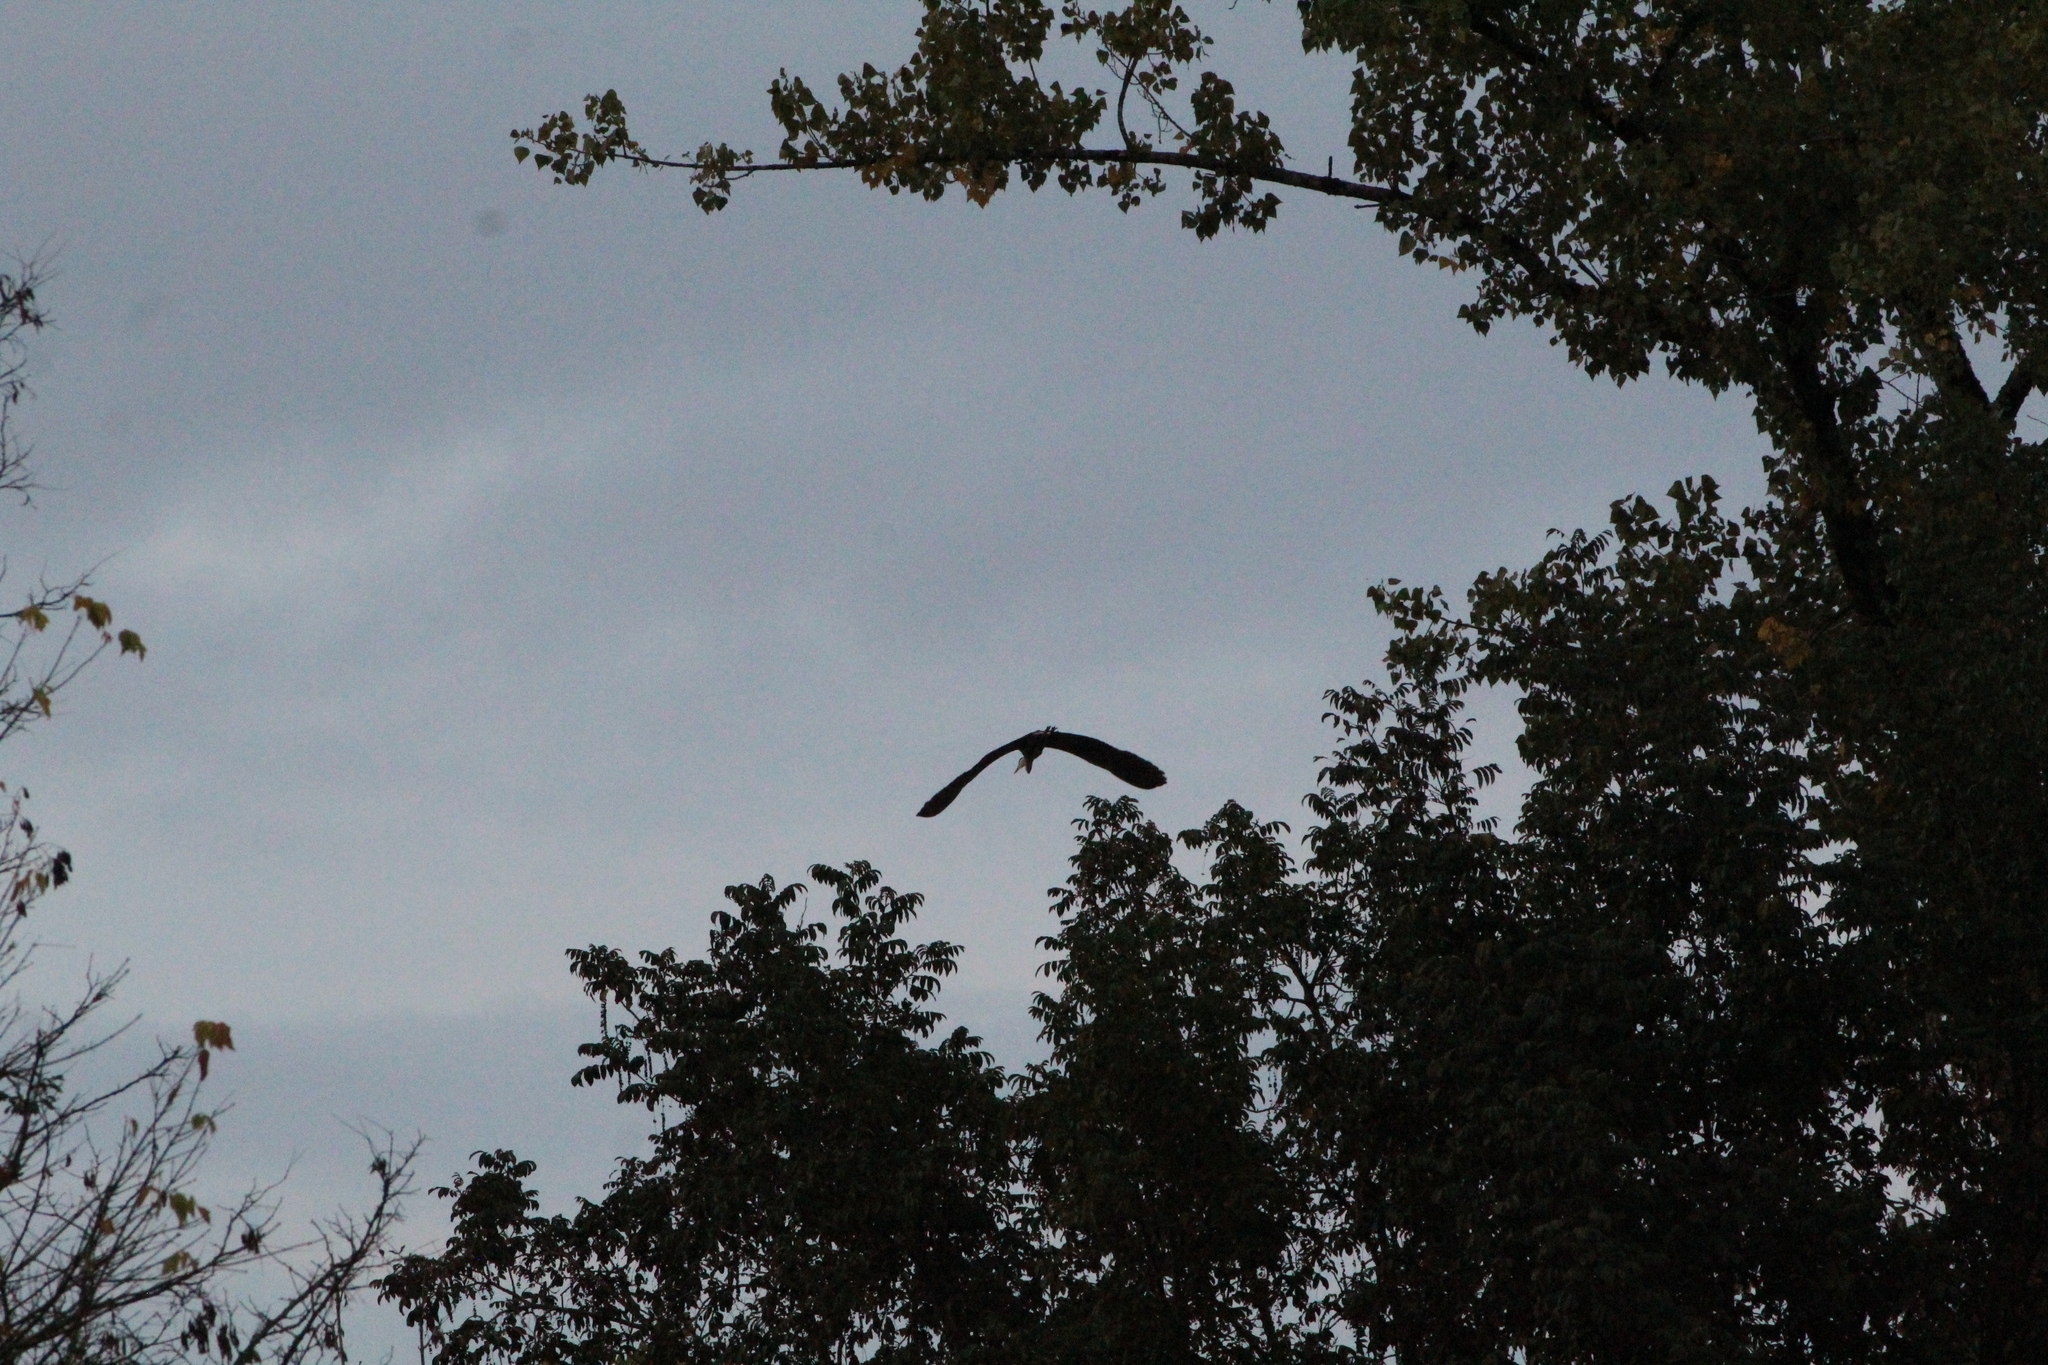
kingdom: Animalia
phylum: Chordata
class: Aves
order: Pelecaniformes
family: Ardeidae
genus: Ardea
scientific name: Ardea cinerea
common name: Grey heron
